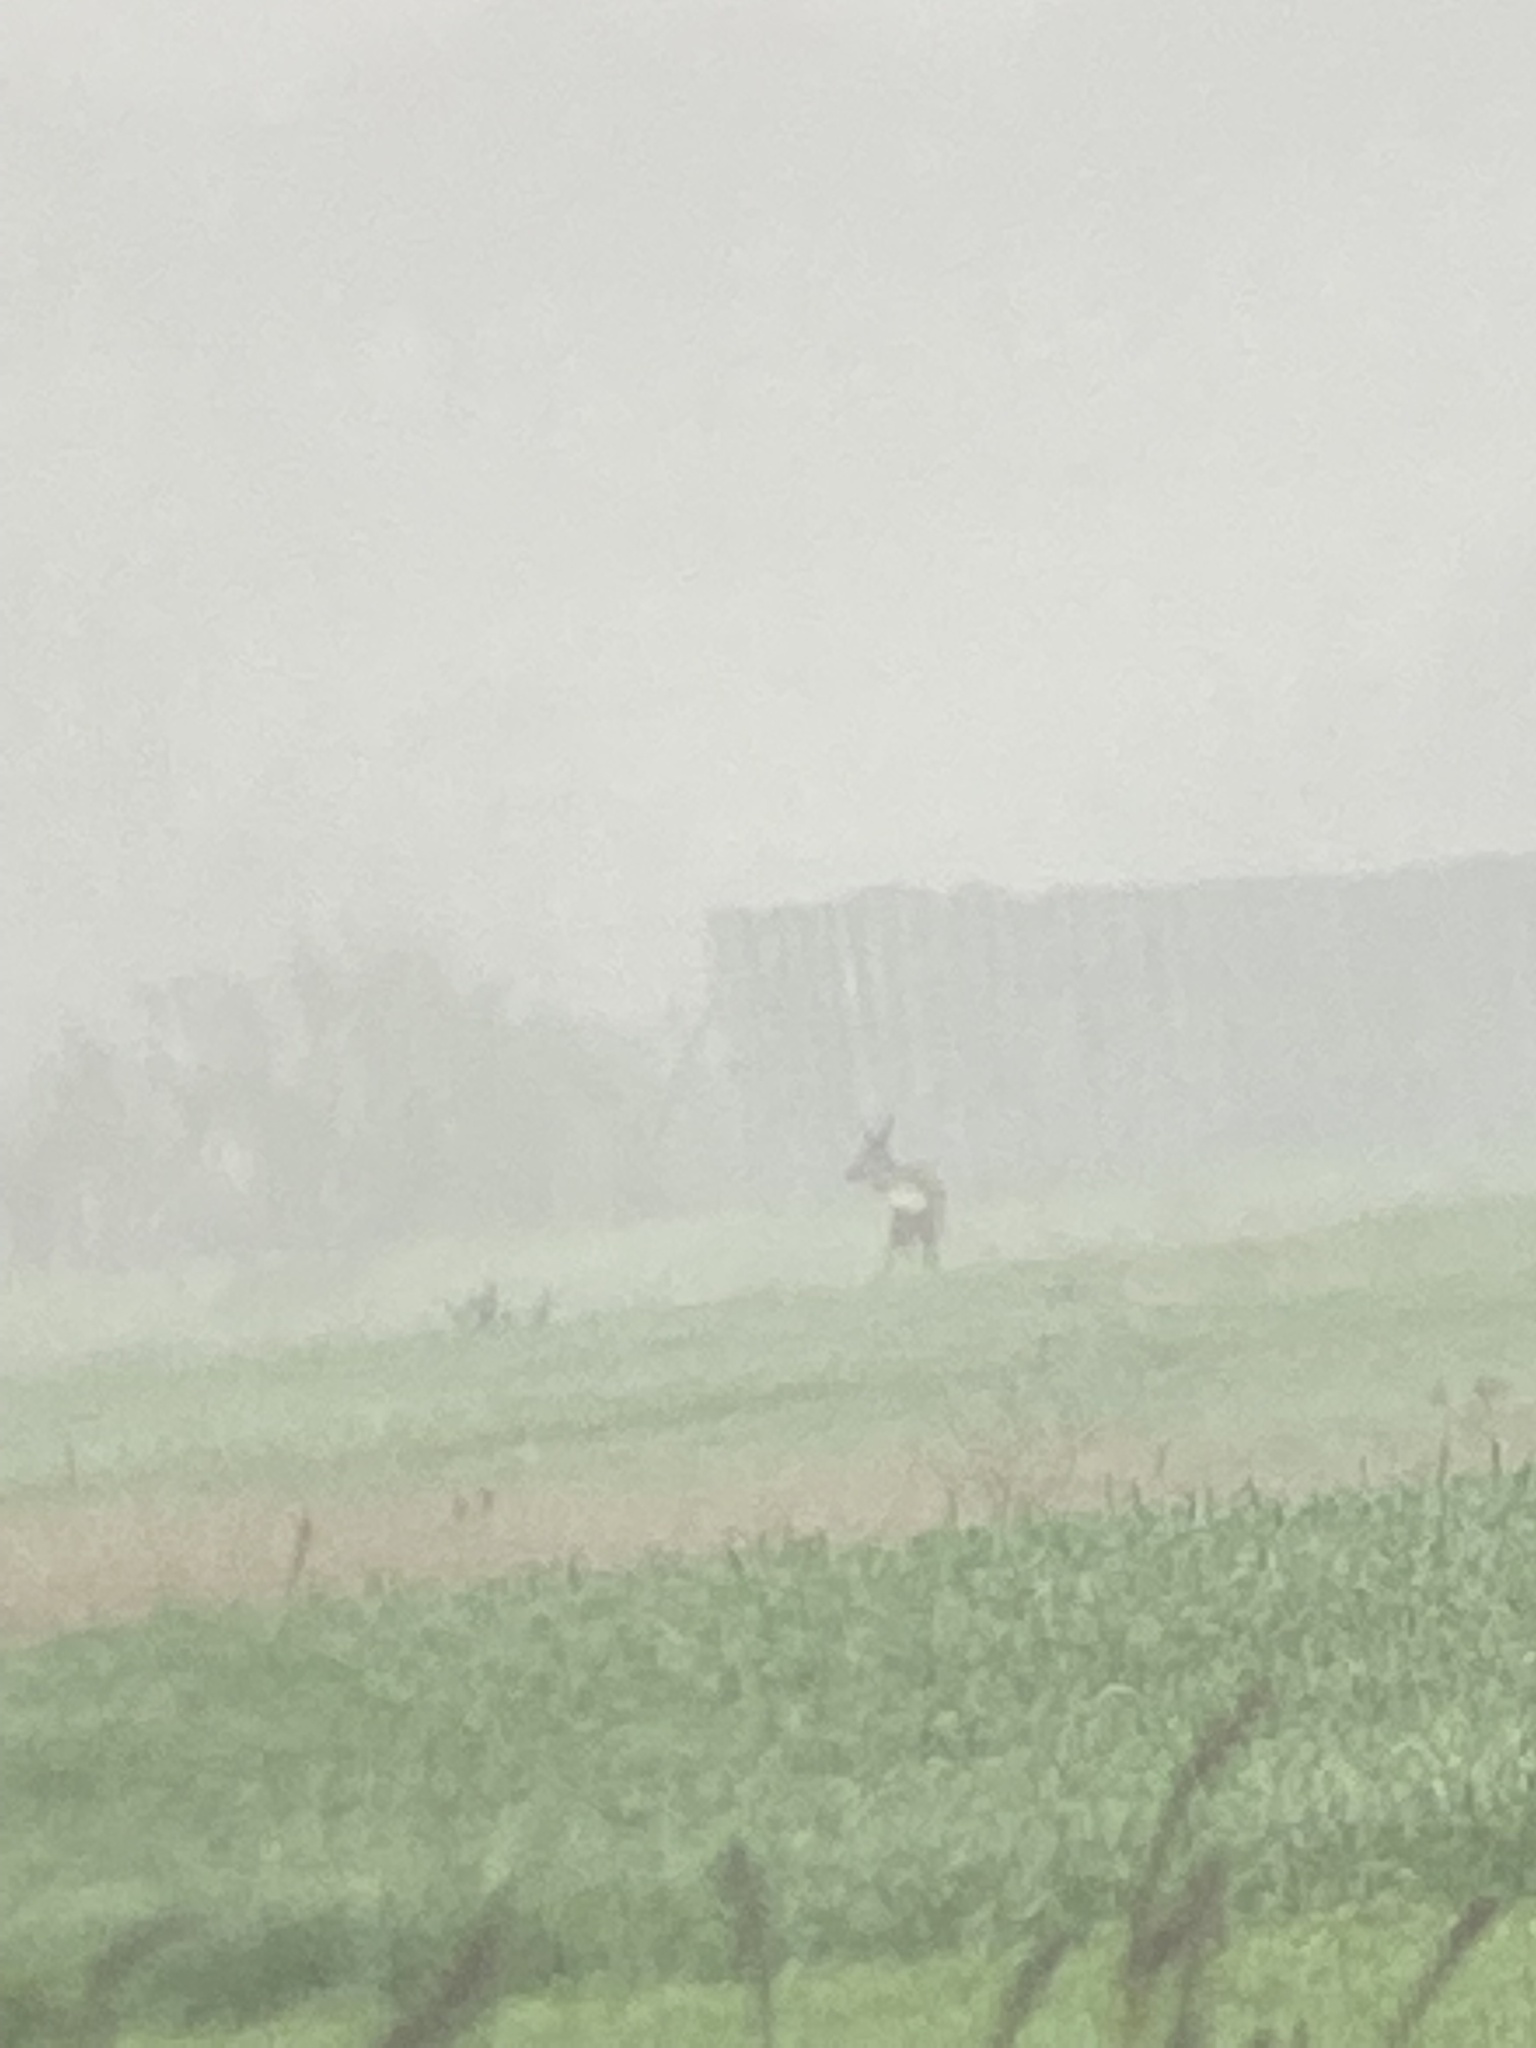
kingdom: Animalia
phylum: Chordata
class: Mammalia
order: Artiodactyla
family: Cervidae
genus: Capreolus
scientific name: Capreolus capreolus
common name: Western roe deer
